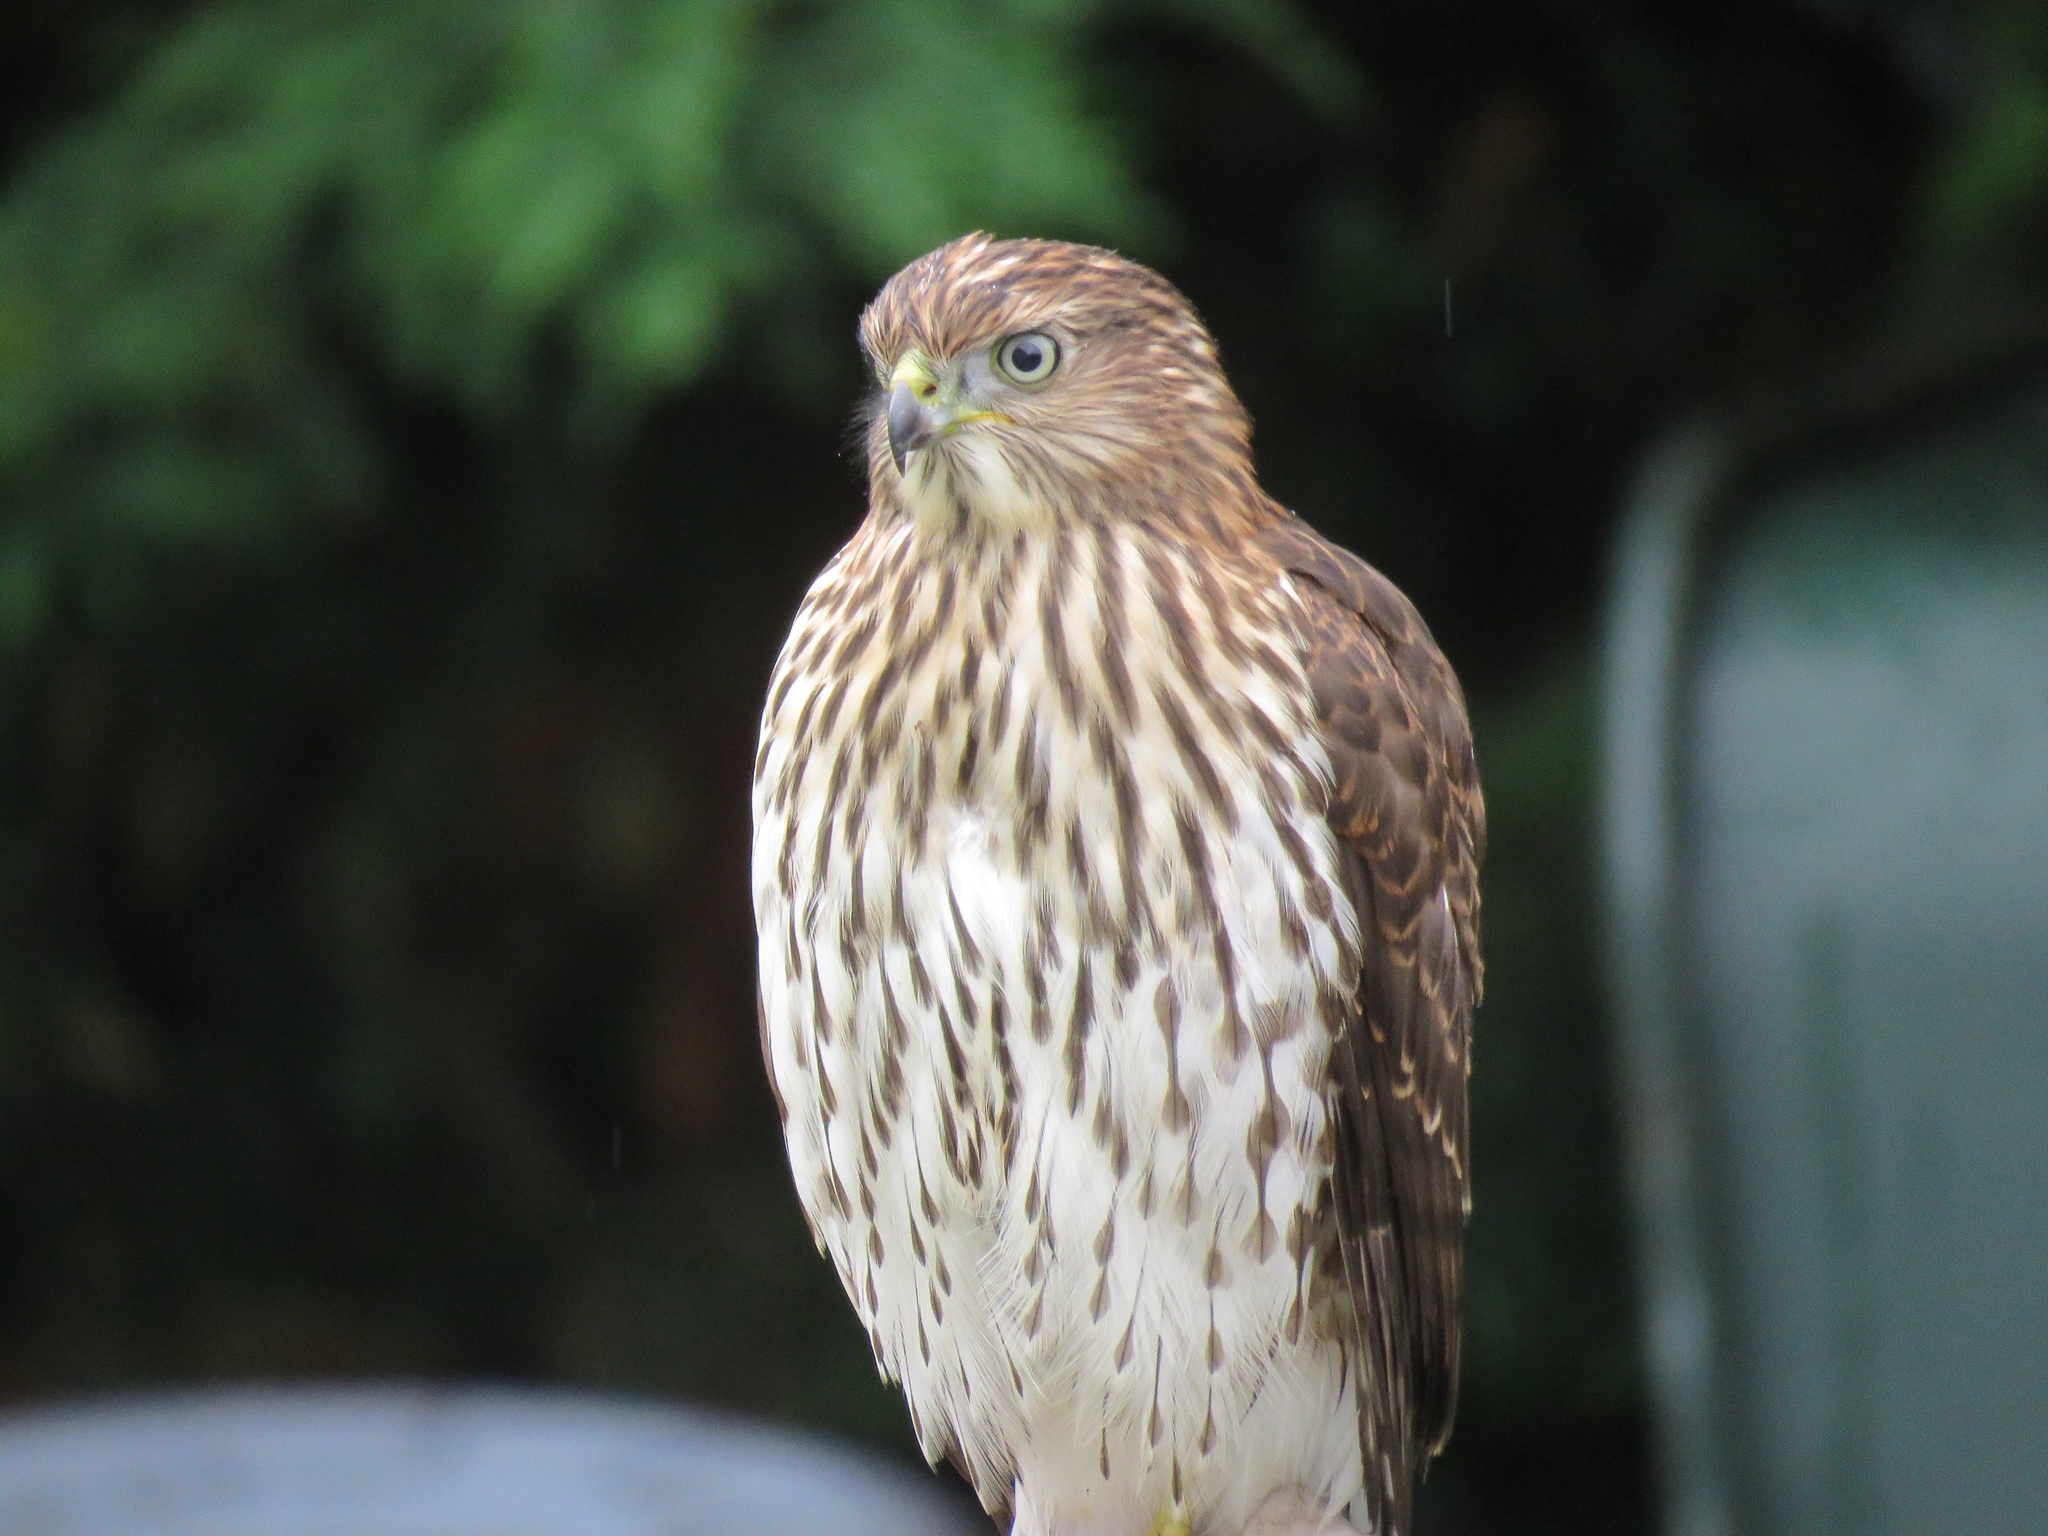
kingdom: Animalia
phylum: Chordata
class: Aves
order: Accipitriformes
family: Accipitridae
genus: Accipiter
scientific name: Accipiter cooperii
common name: Cooper's hawk
